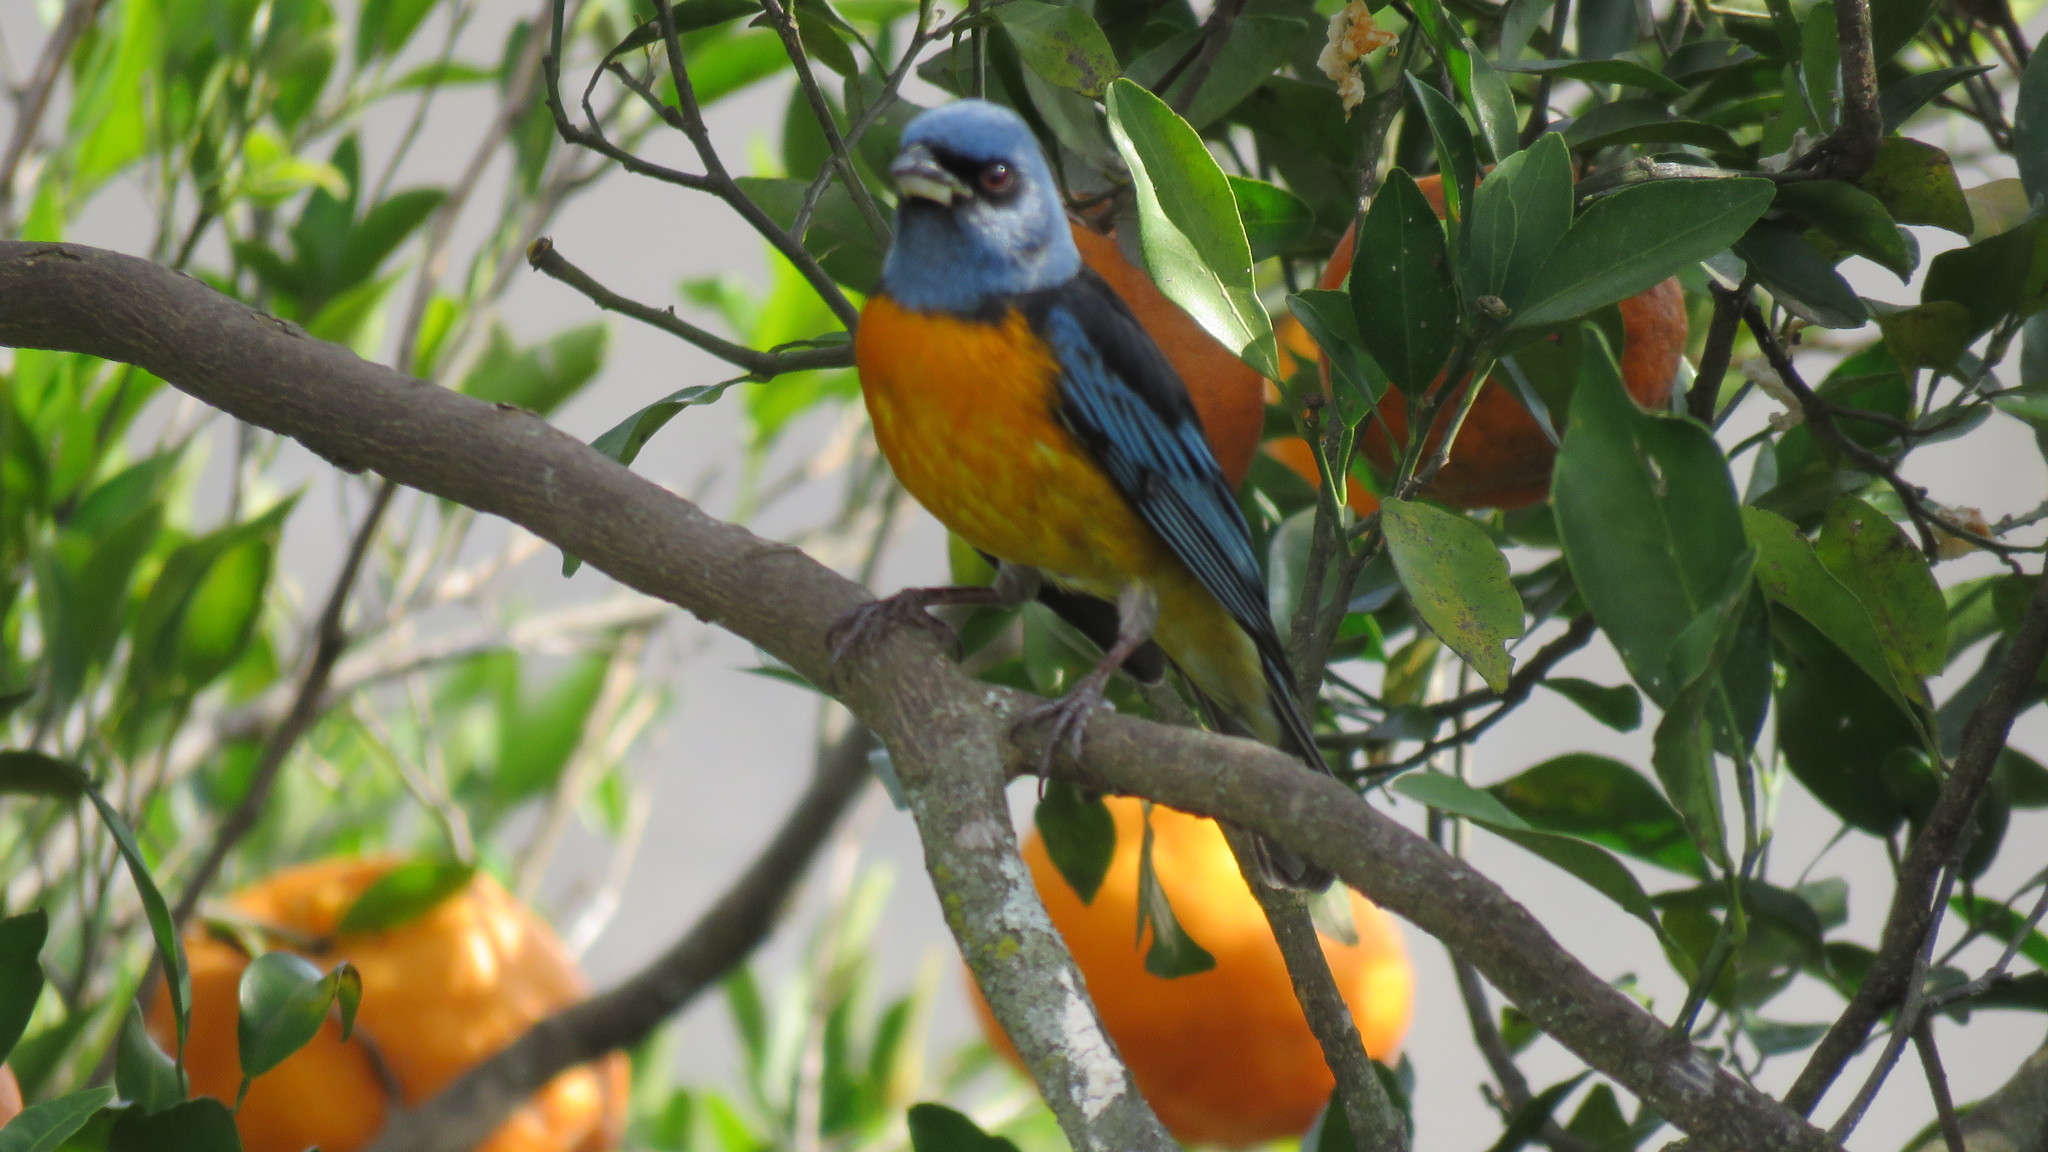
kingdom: Animalia
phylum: Chordata
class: Aves
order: Passeriformes
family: Thraupidae
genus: Rauenia
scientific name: Rauenia bonariensis
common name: Blue-and-yellow tanager
